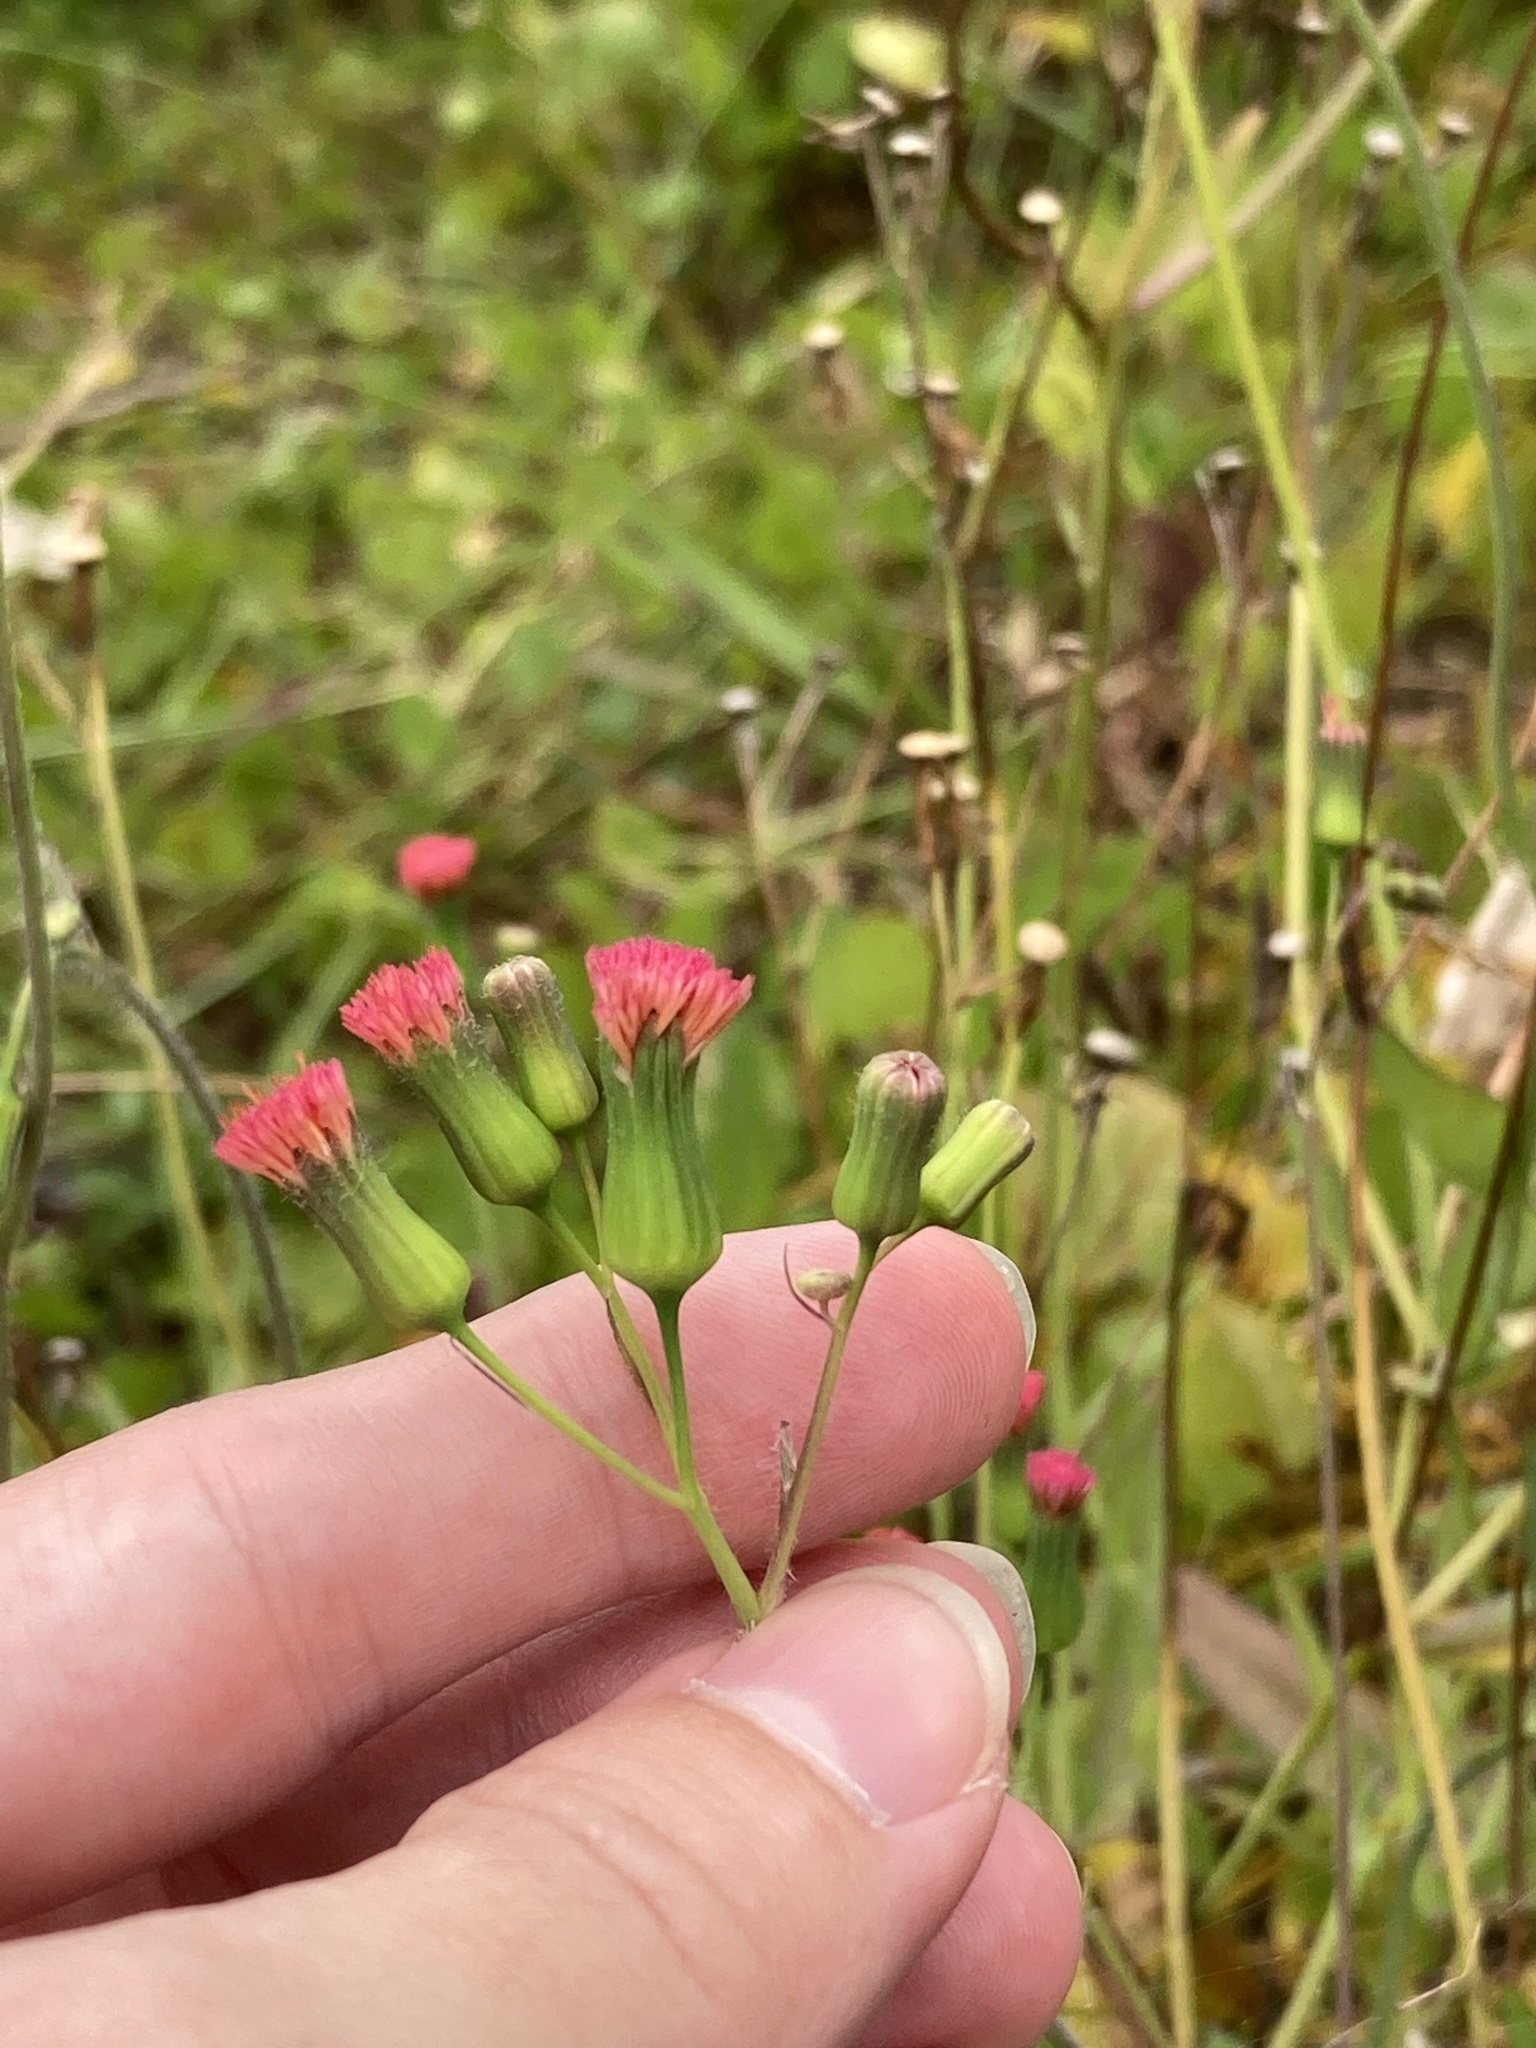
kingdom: Plantae
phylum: Tracheophyta
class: Magnoliopsida
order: Asterales
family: Asteraceae
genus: Emilia
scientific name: Emilia fosbergii
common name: Florida tasselflower
